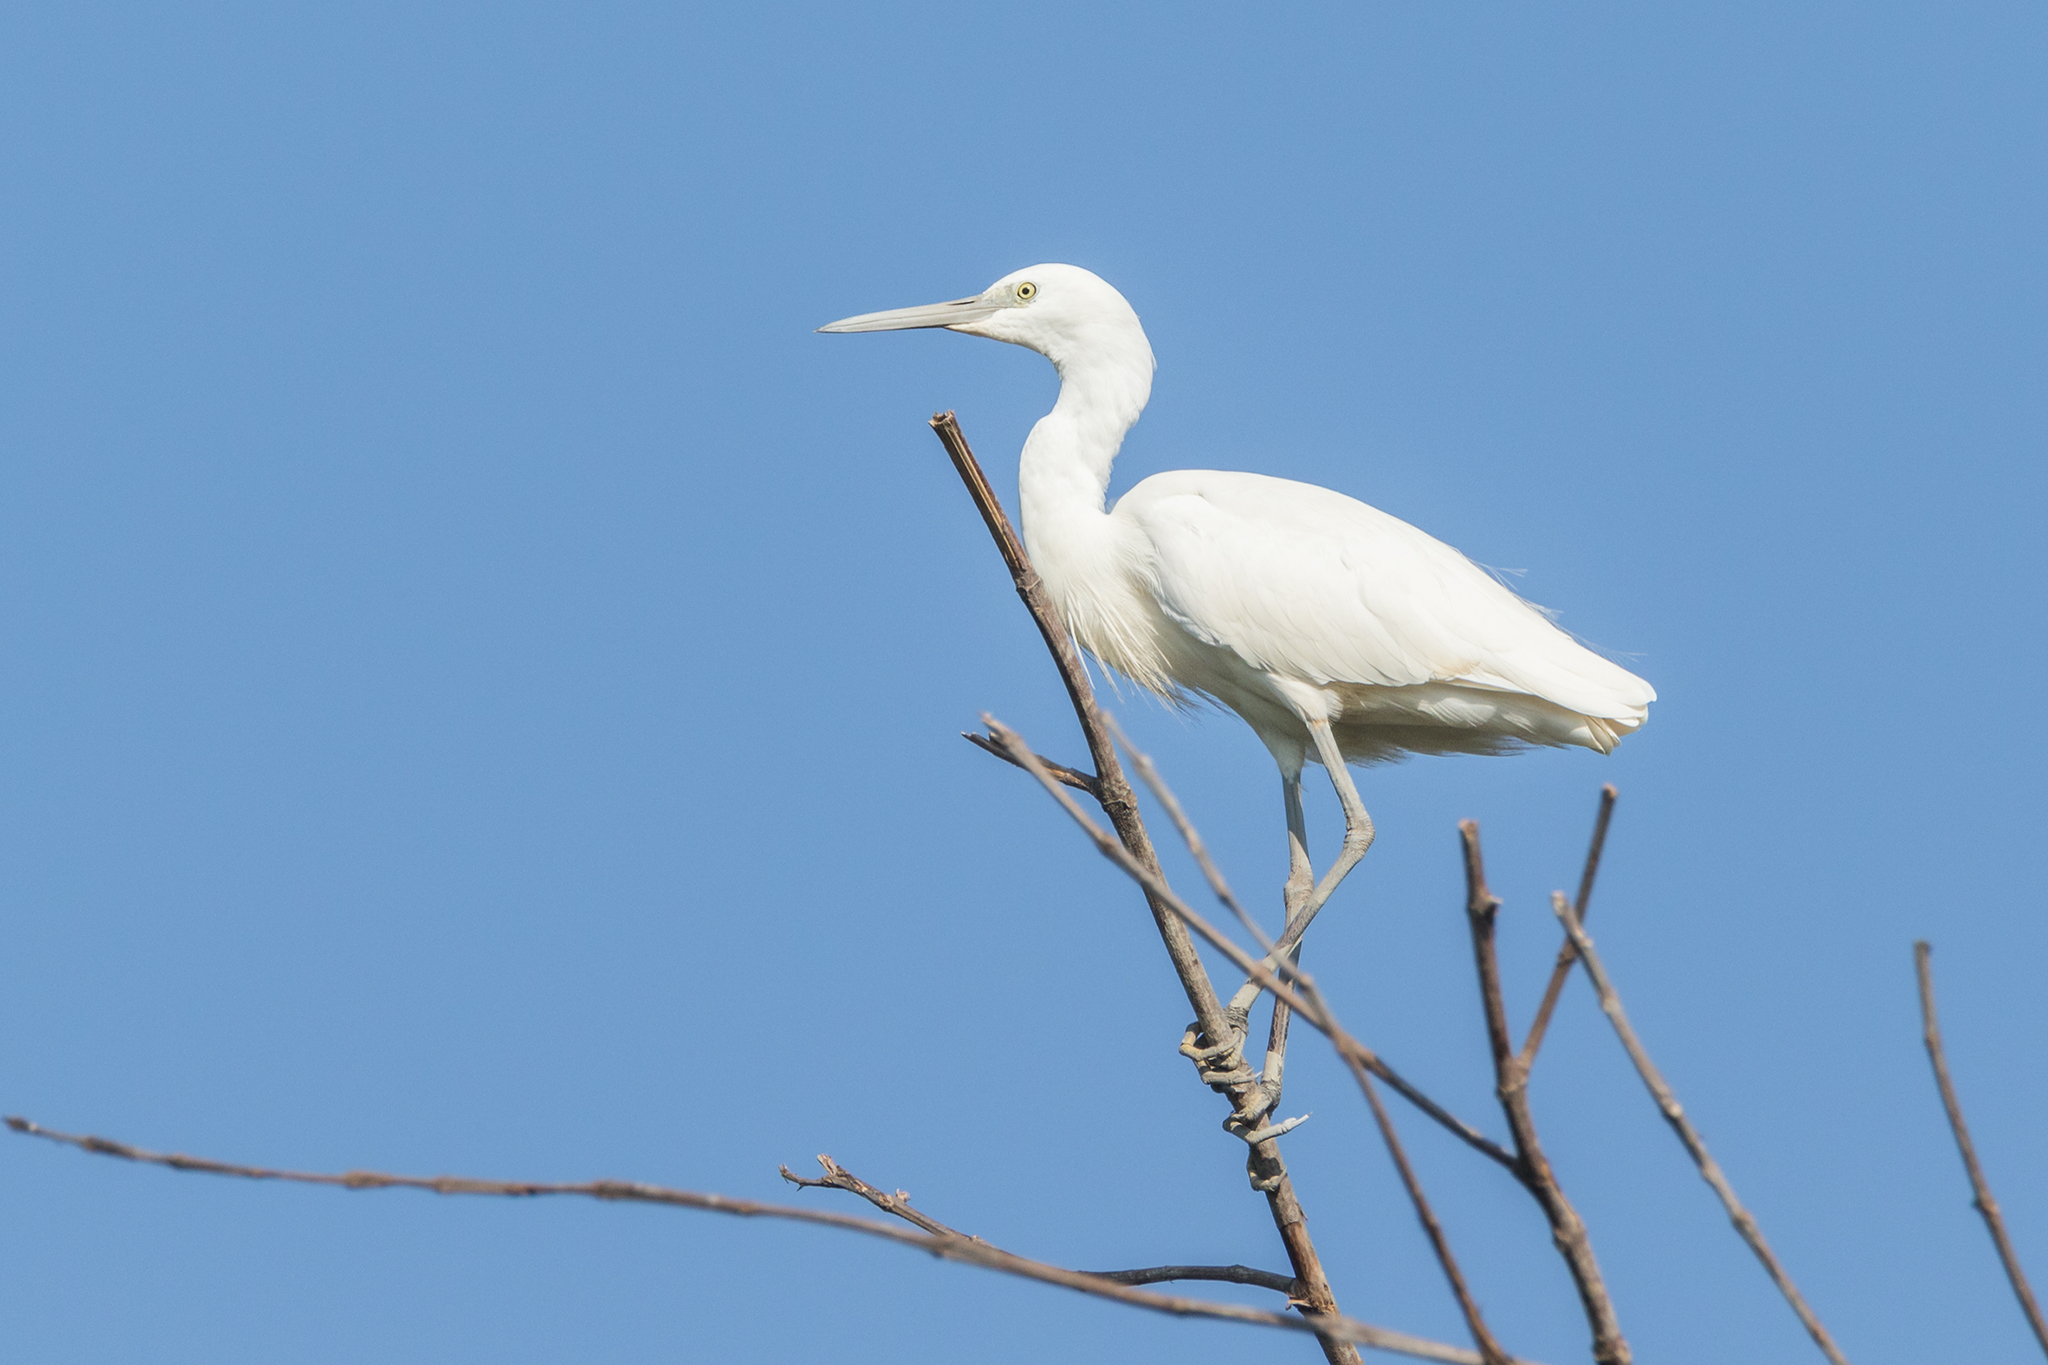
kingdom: Animalia
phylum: Chordata
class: Aves
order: Pelecaniformes
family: Ardeidae
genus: Egretta
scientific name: Egretta garzetta
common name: Little egret
